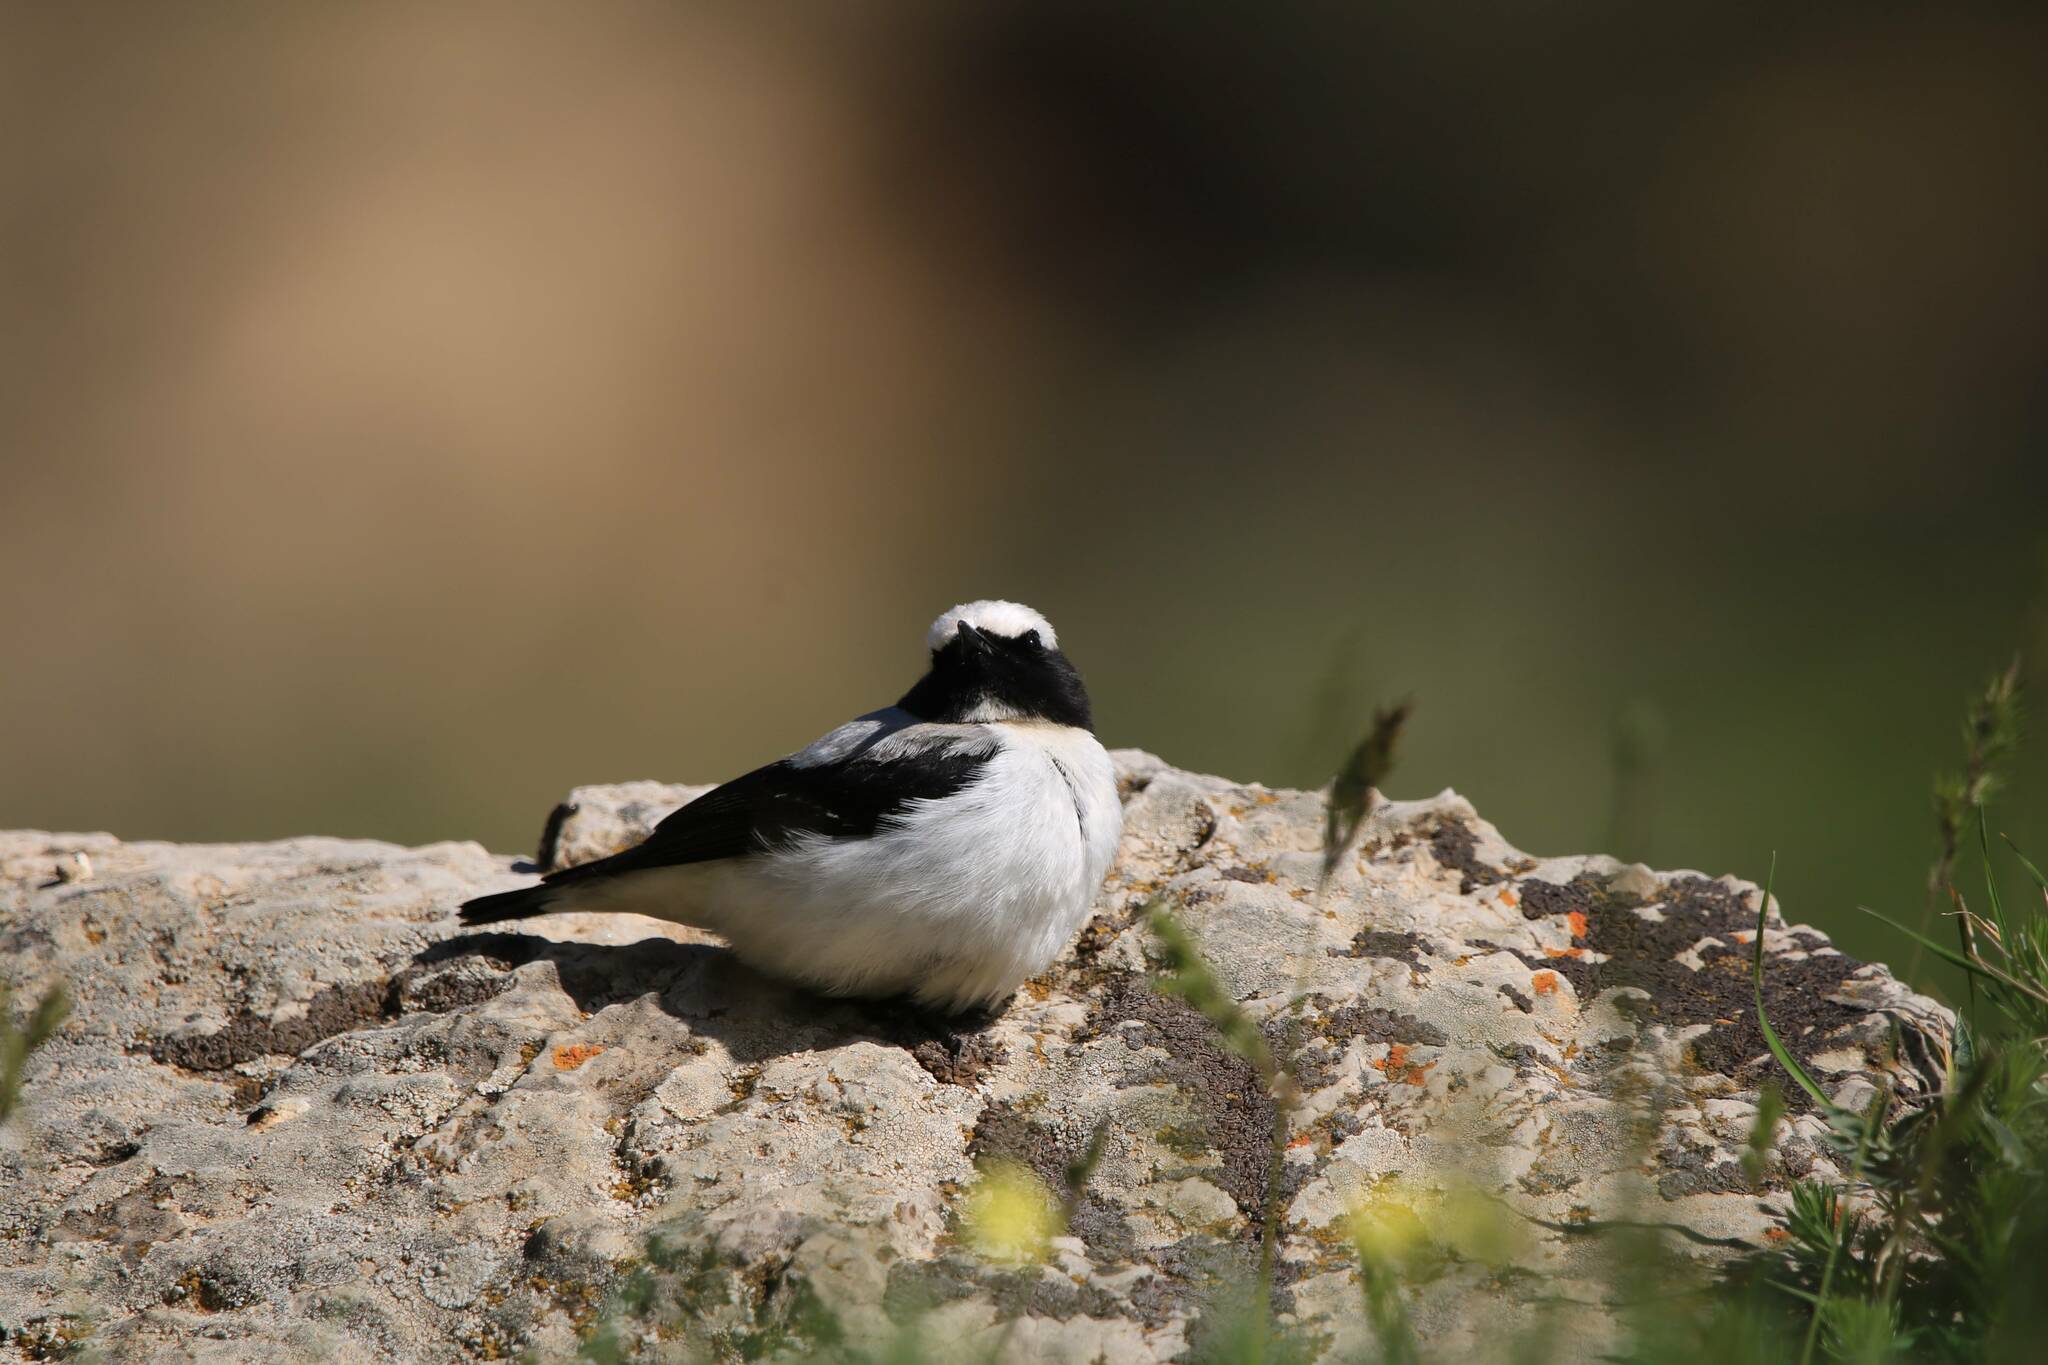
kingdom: Animalia
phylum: Chordata
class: Aves
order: Passeriformes
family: Muscicapidae
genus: Oenanthe
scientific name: Oenanthe oenanthe
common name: Northern wheatear
